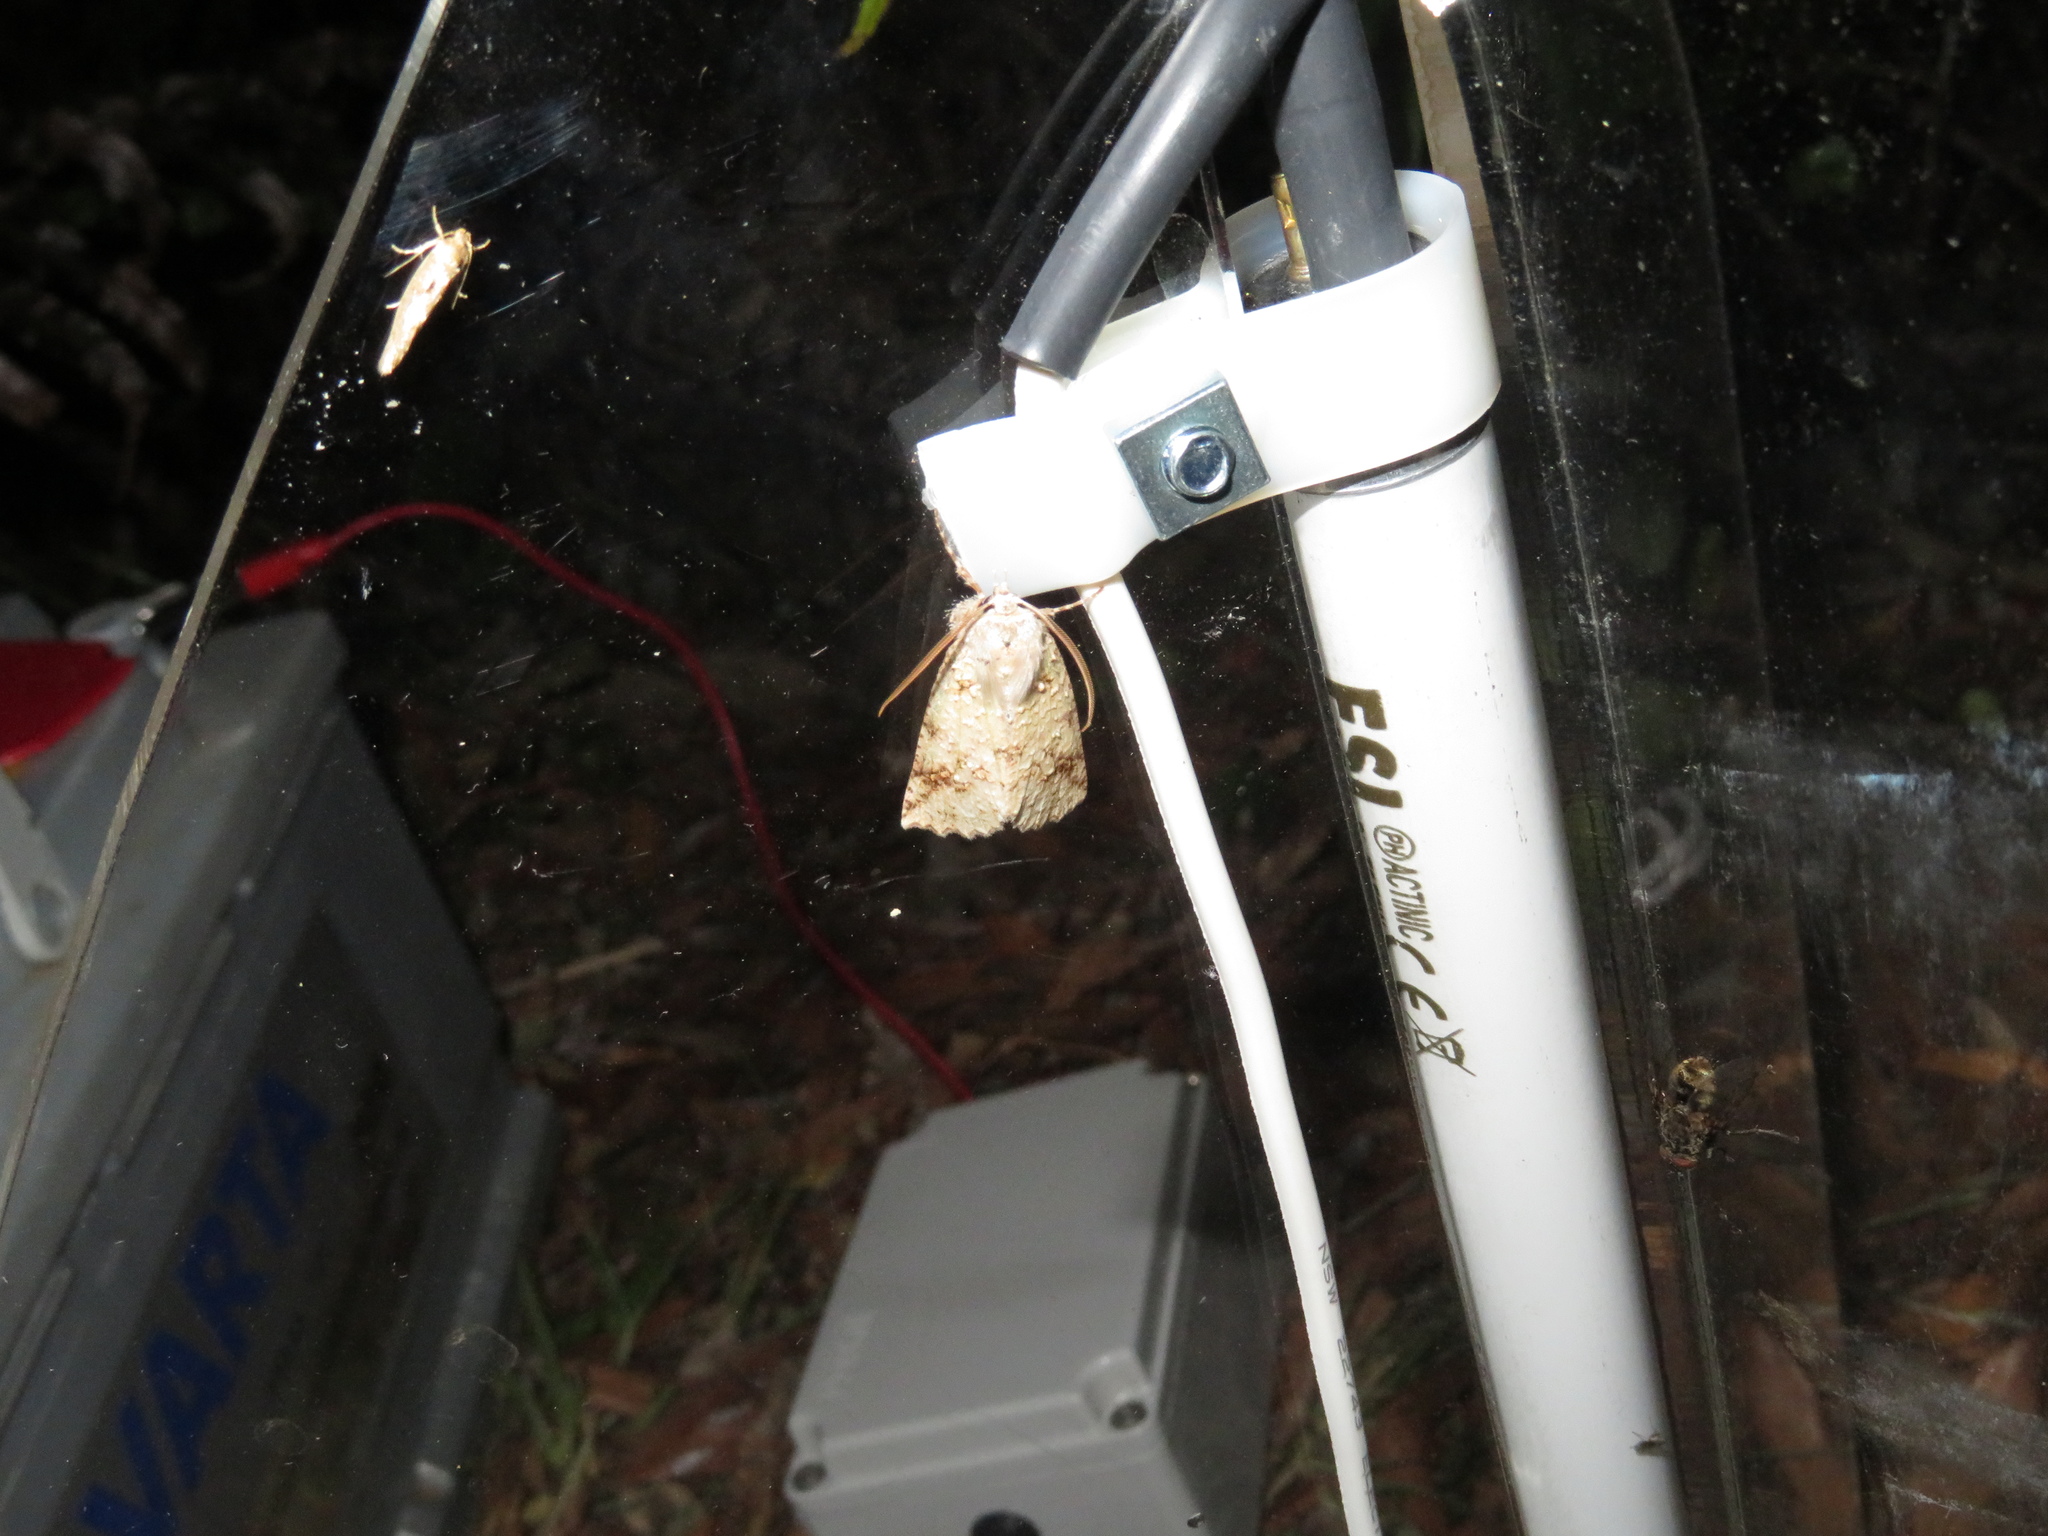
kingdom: Animalia
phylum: Arthropoda
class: Insecta
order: Lepidoptera
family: Geometridae
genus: Declana
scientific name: Declana floccosa
